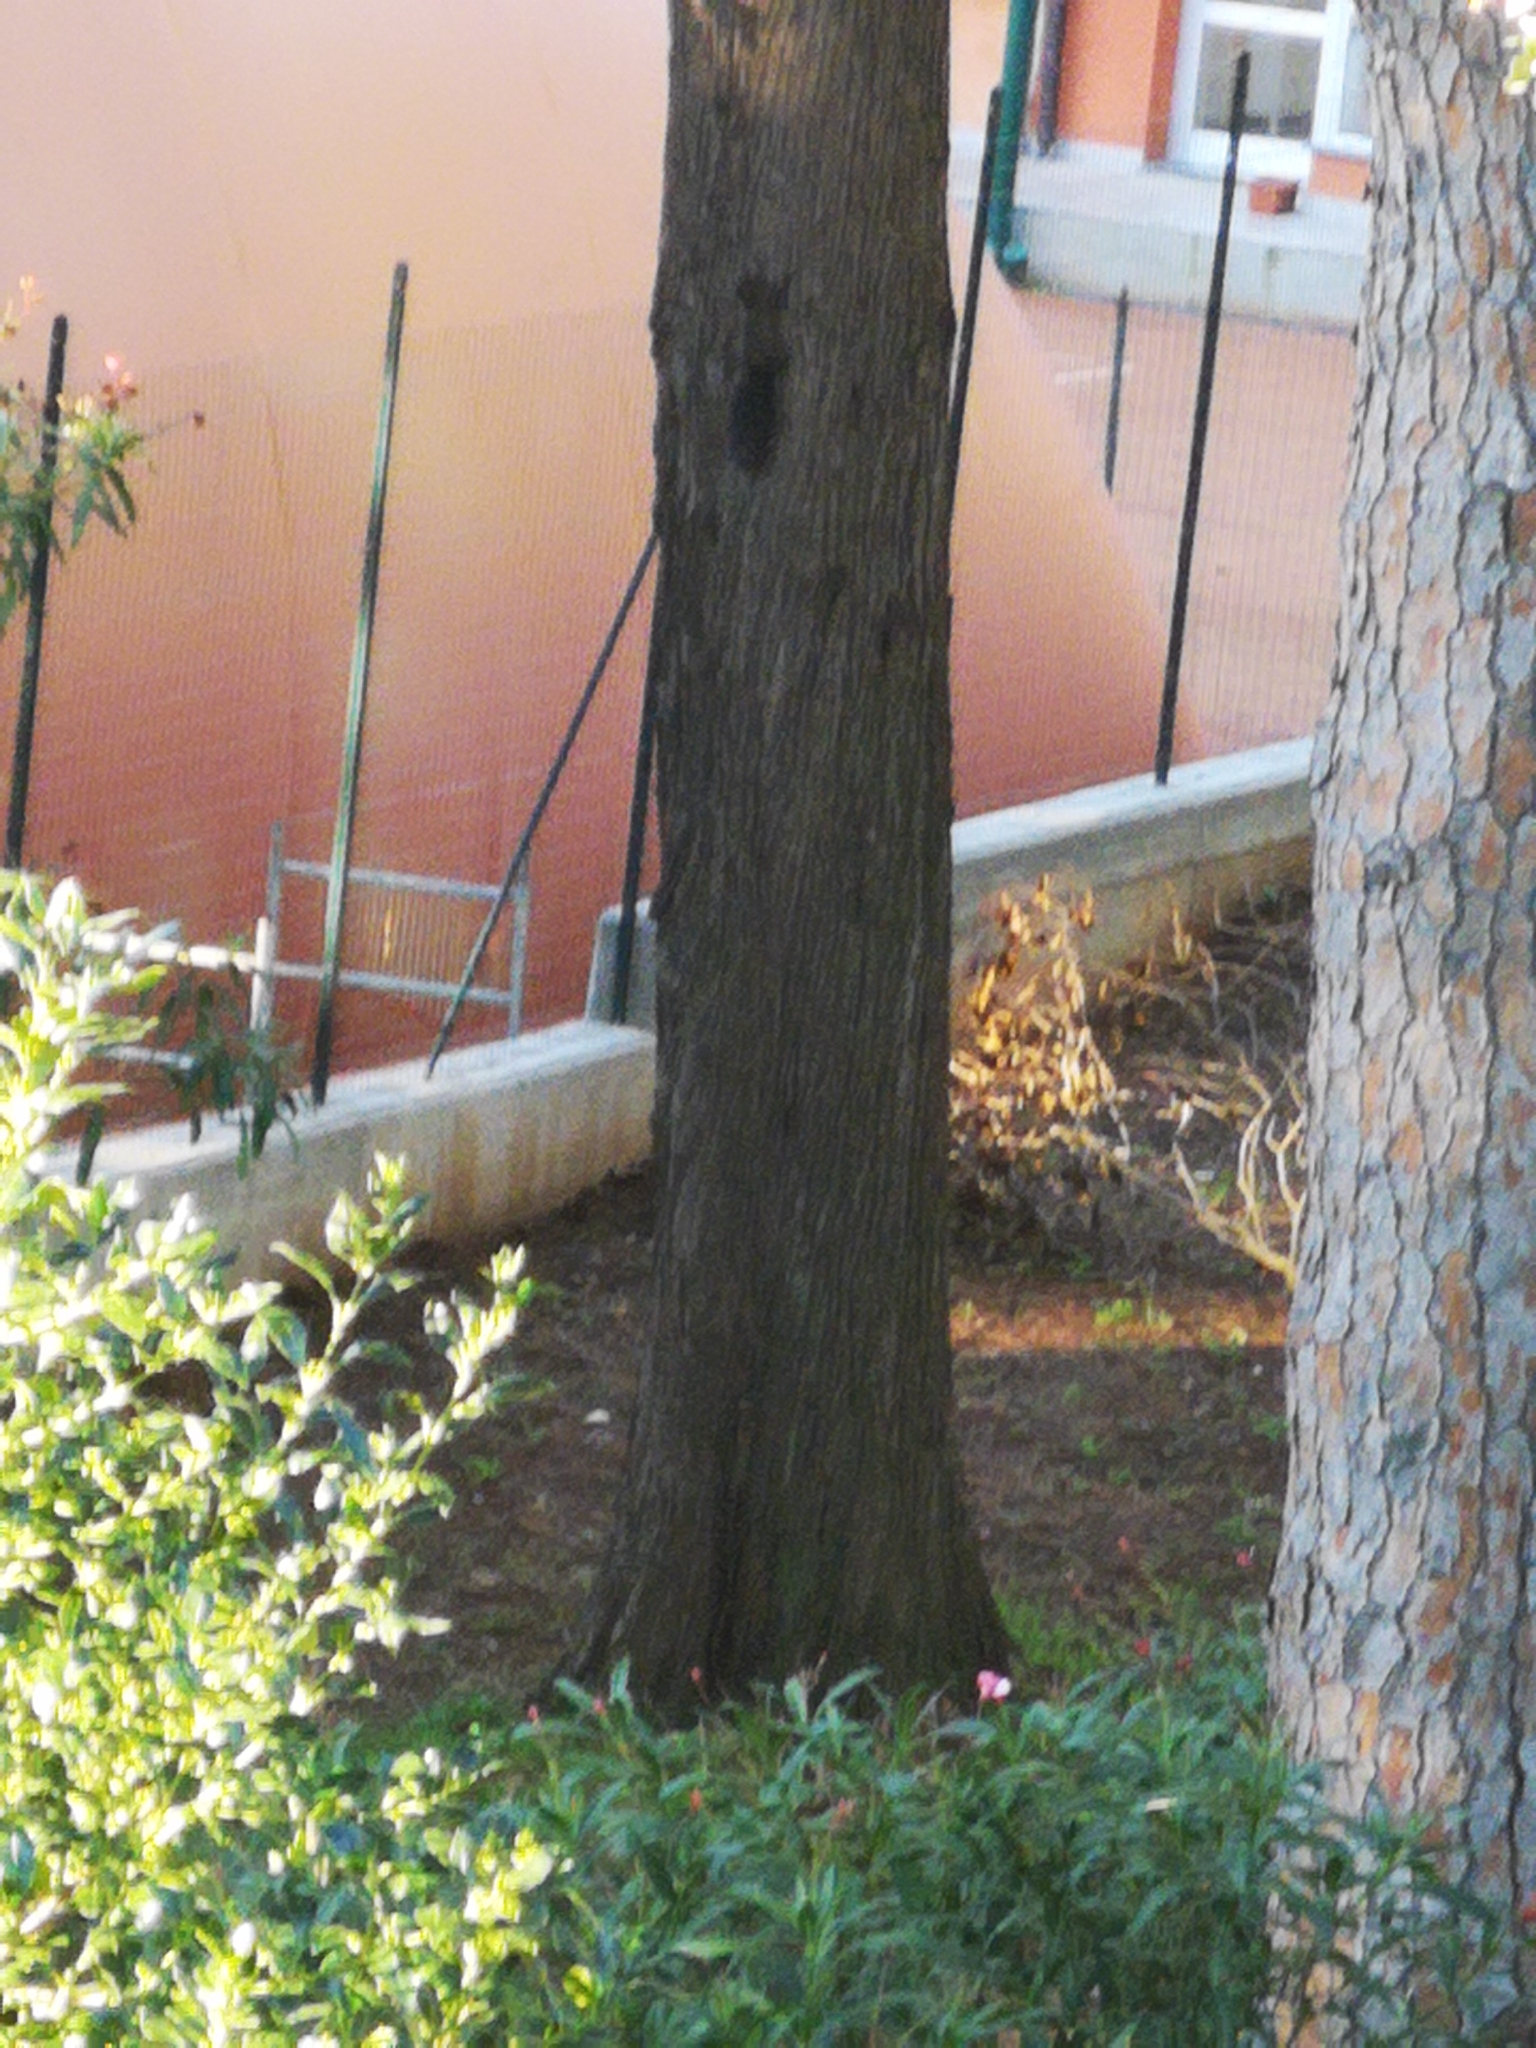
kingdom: Animalia
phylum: Chordata
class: Mammalia
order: Rodentia
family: Sciuridae
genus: Sciurus
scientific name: Sciurus vulgaris
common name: Eurasian red squirrel
